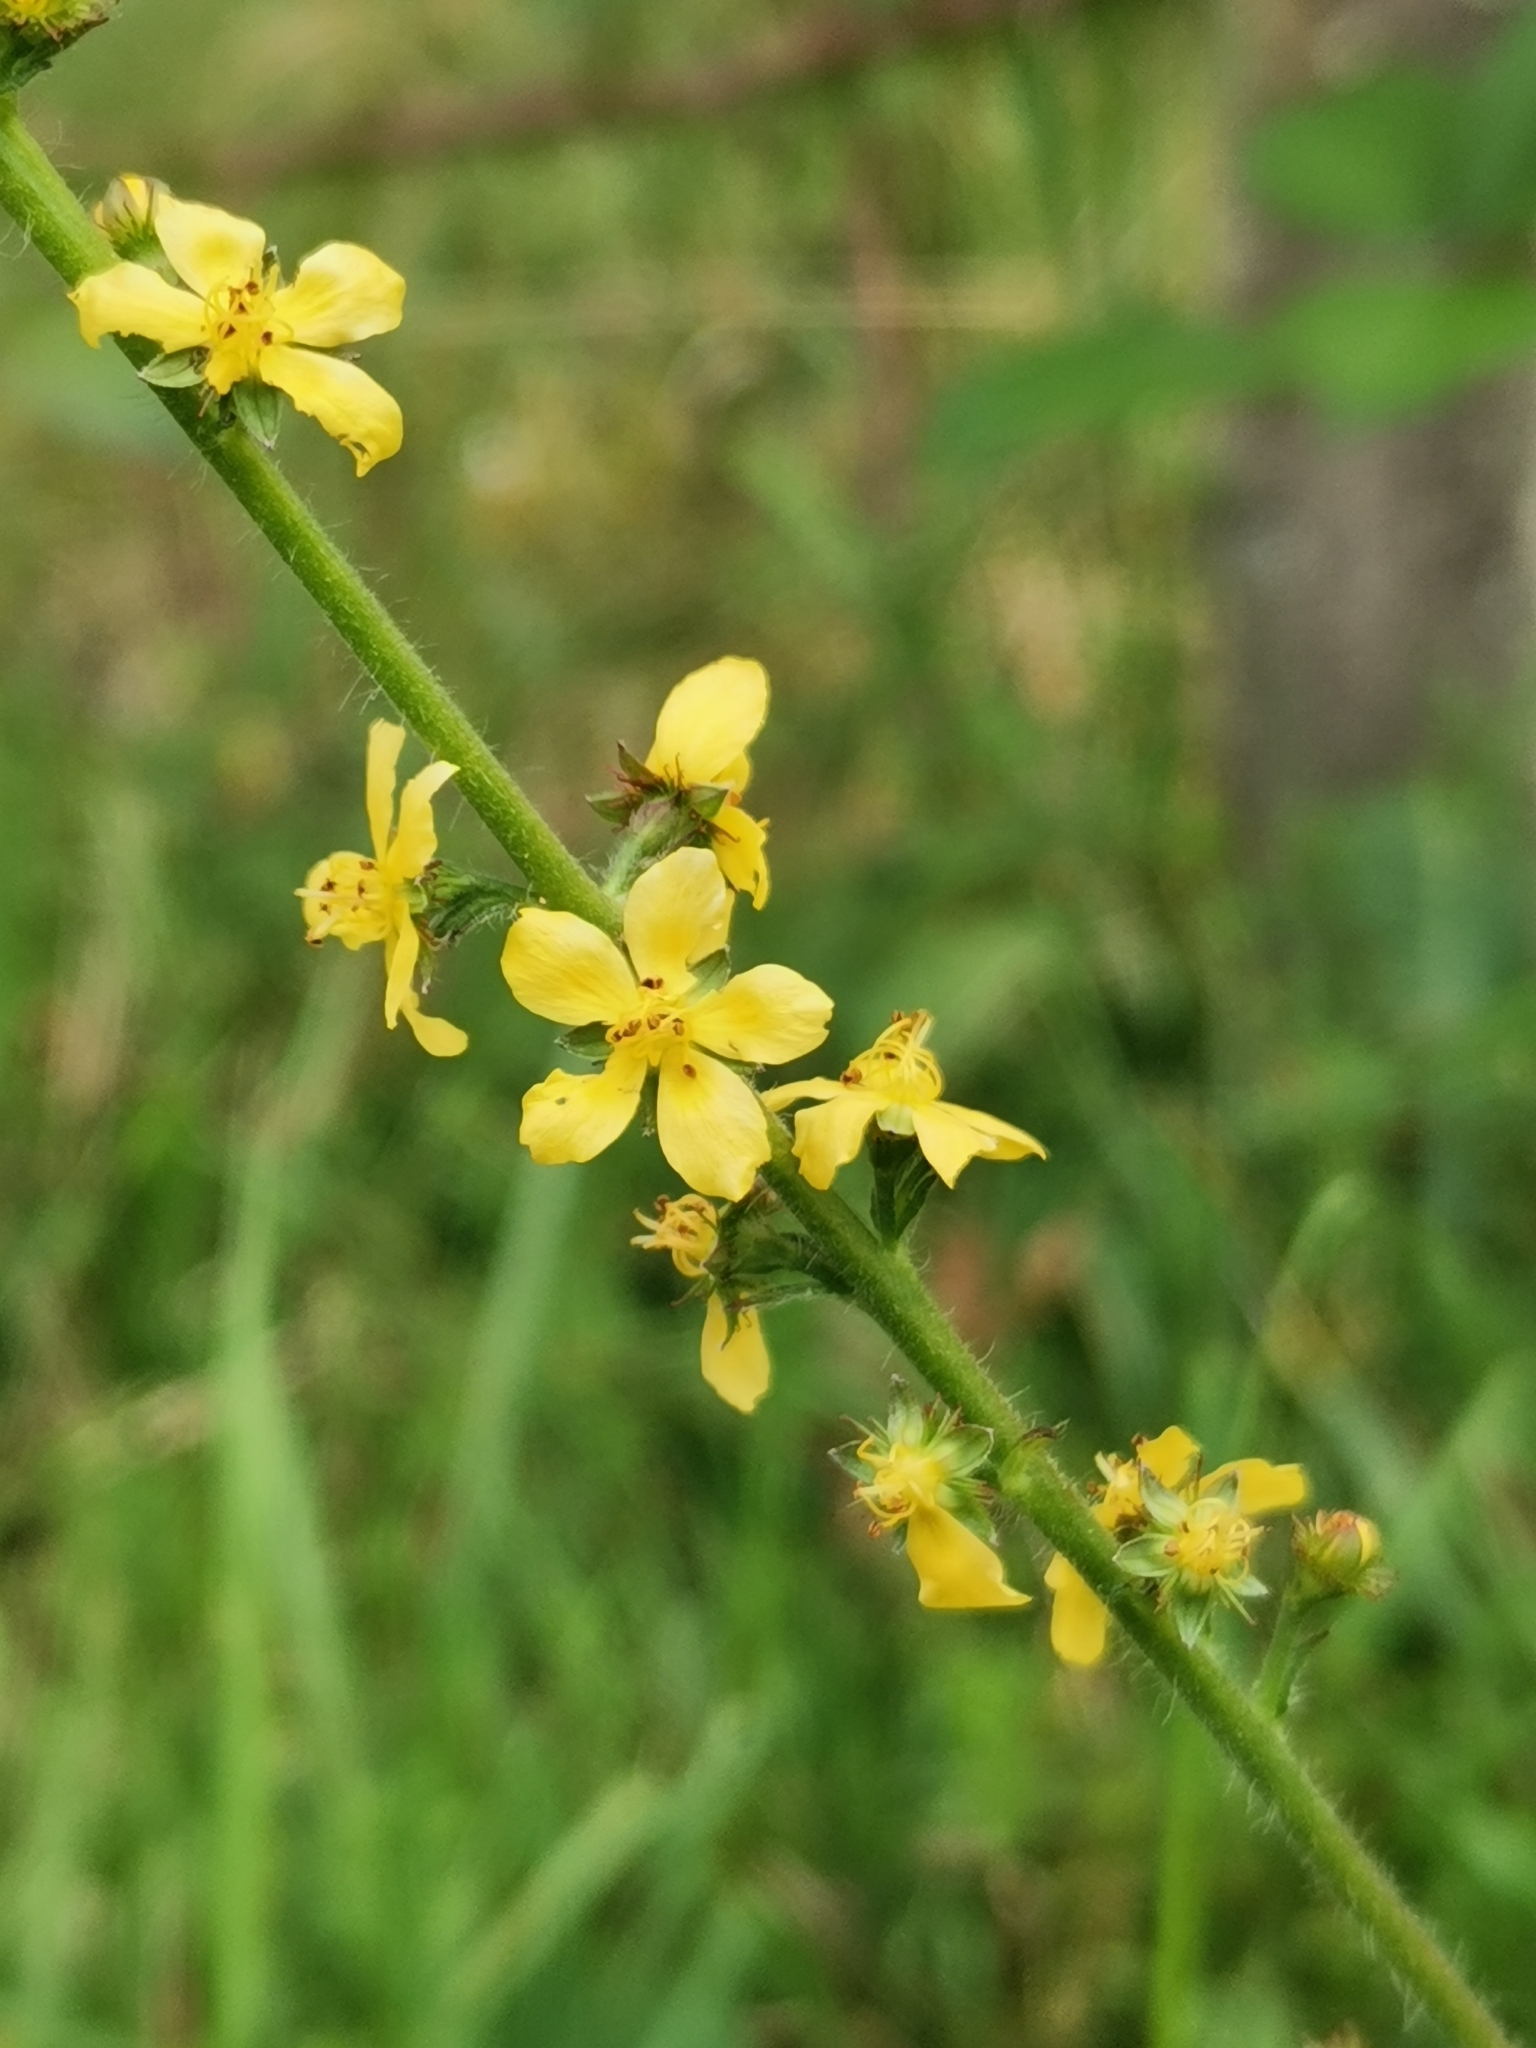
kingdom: Plantae
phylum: Tracheophyta
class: Magnoliopsida
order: Rosales
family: Rosaceae
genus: Agrimonia
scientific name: Agrimonia eupatoria
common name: Agrimony
